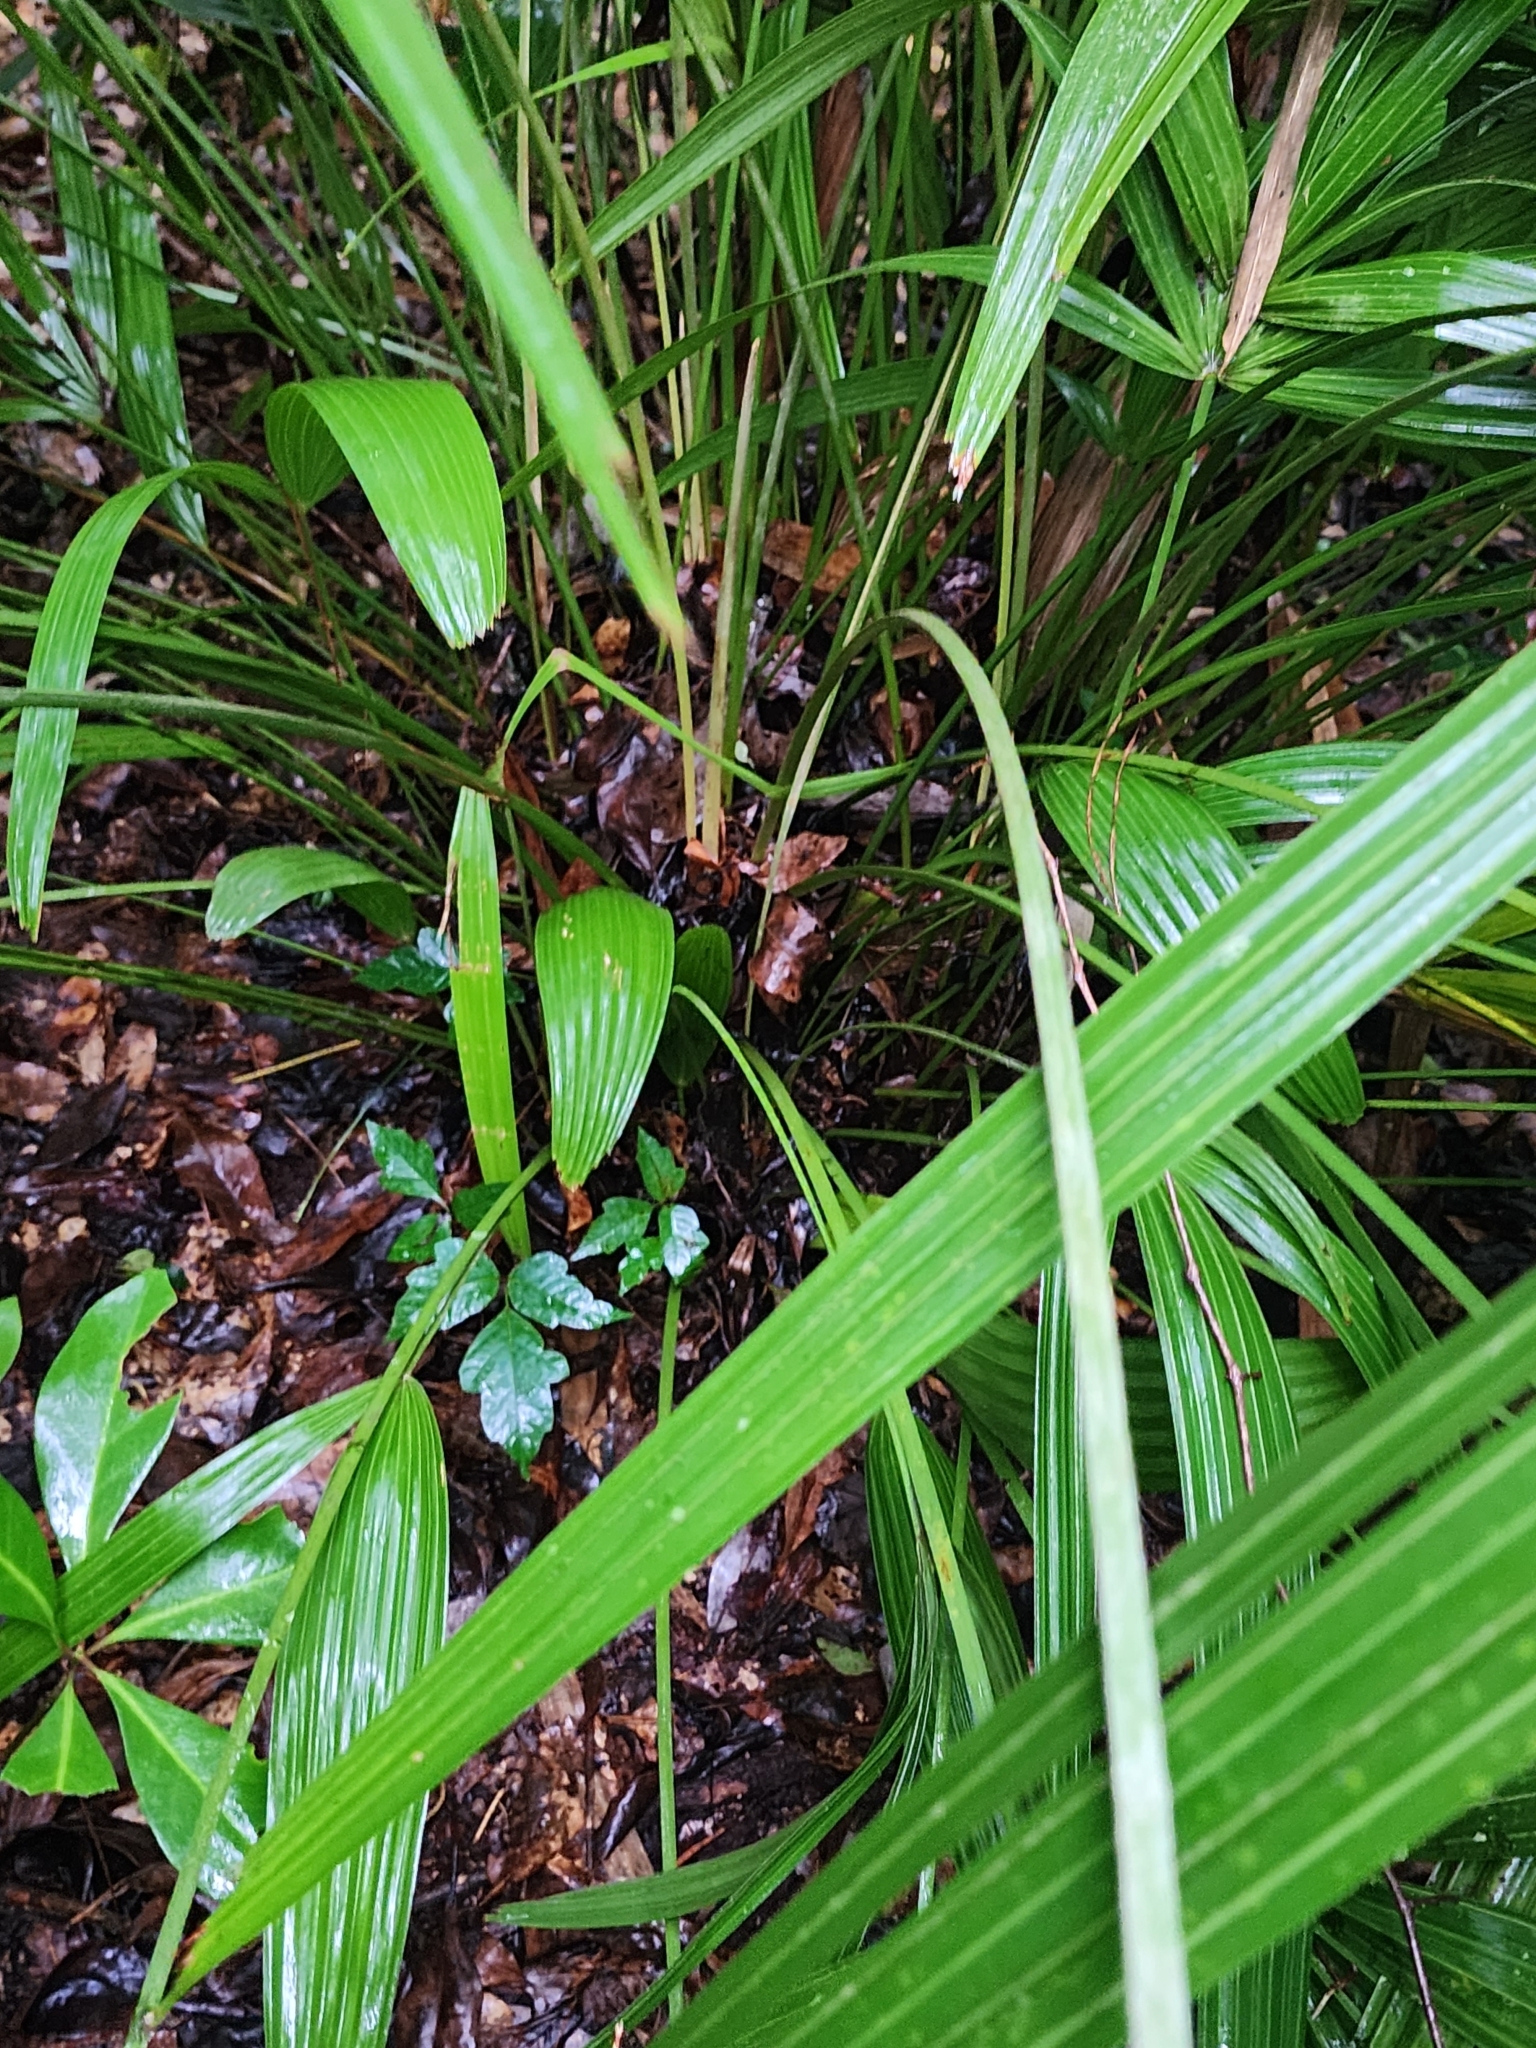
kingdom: Plantae
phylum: Tracheophyta
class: Liliopsida
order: Arecales
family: Arecaceae
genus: Rhapidophyllum
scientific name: Rhapidophyllum hystrix
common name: Porcupine palm
